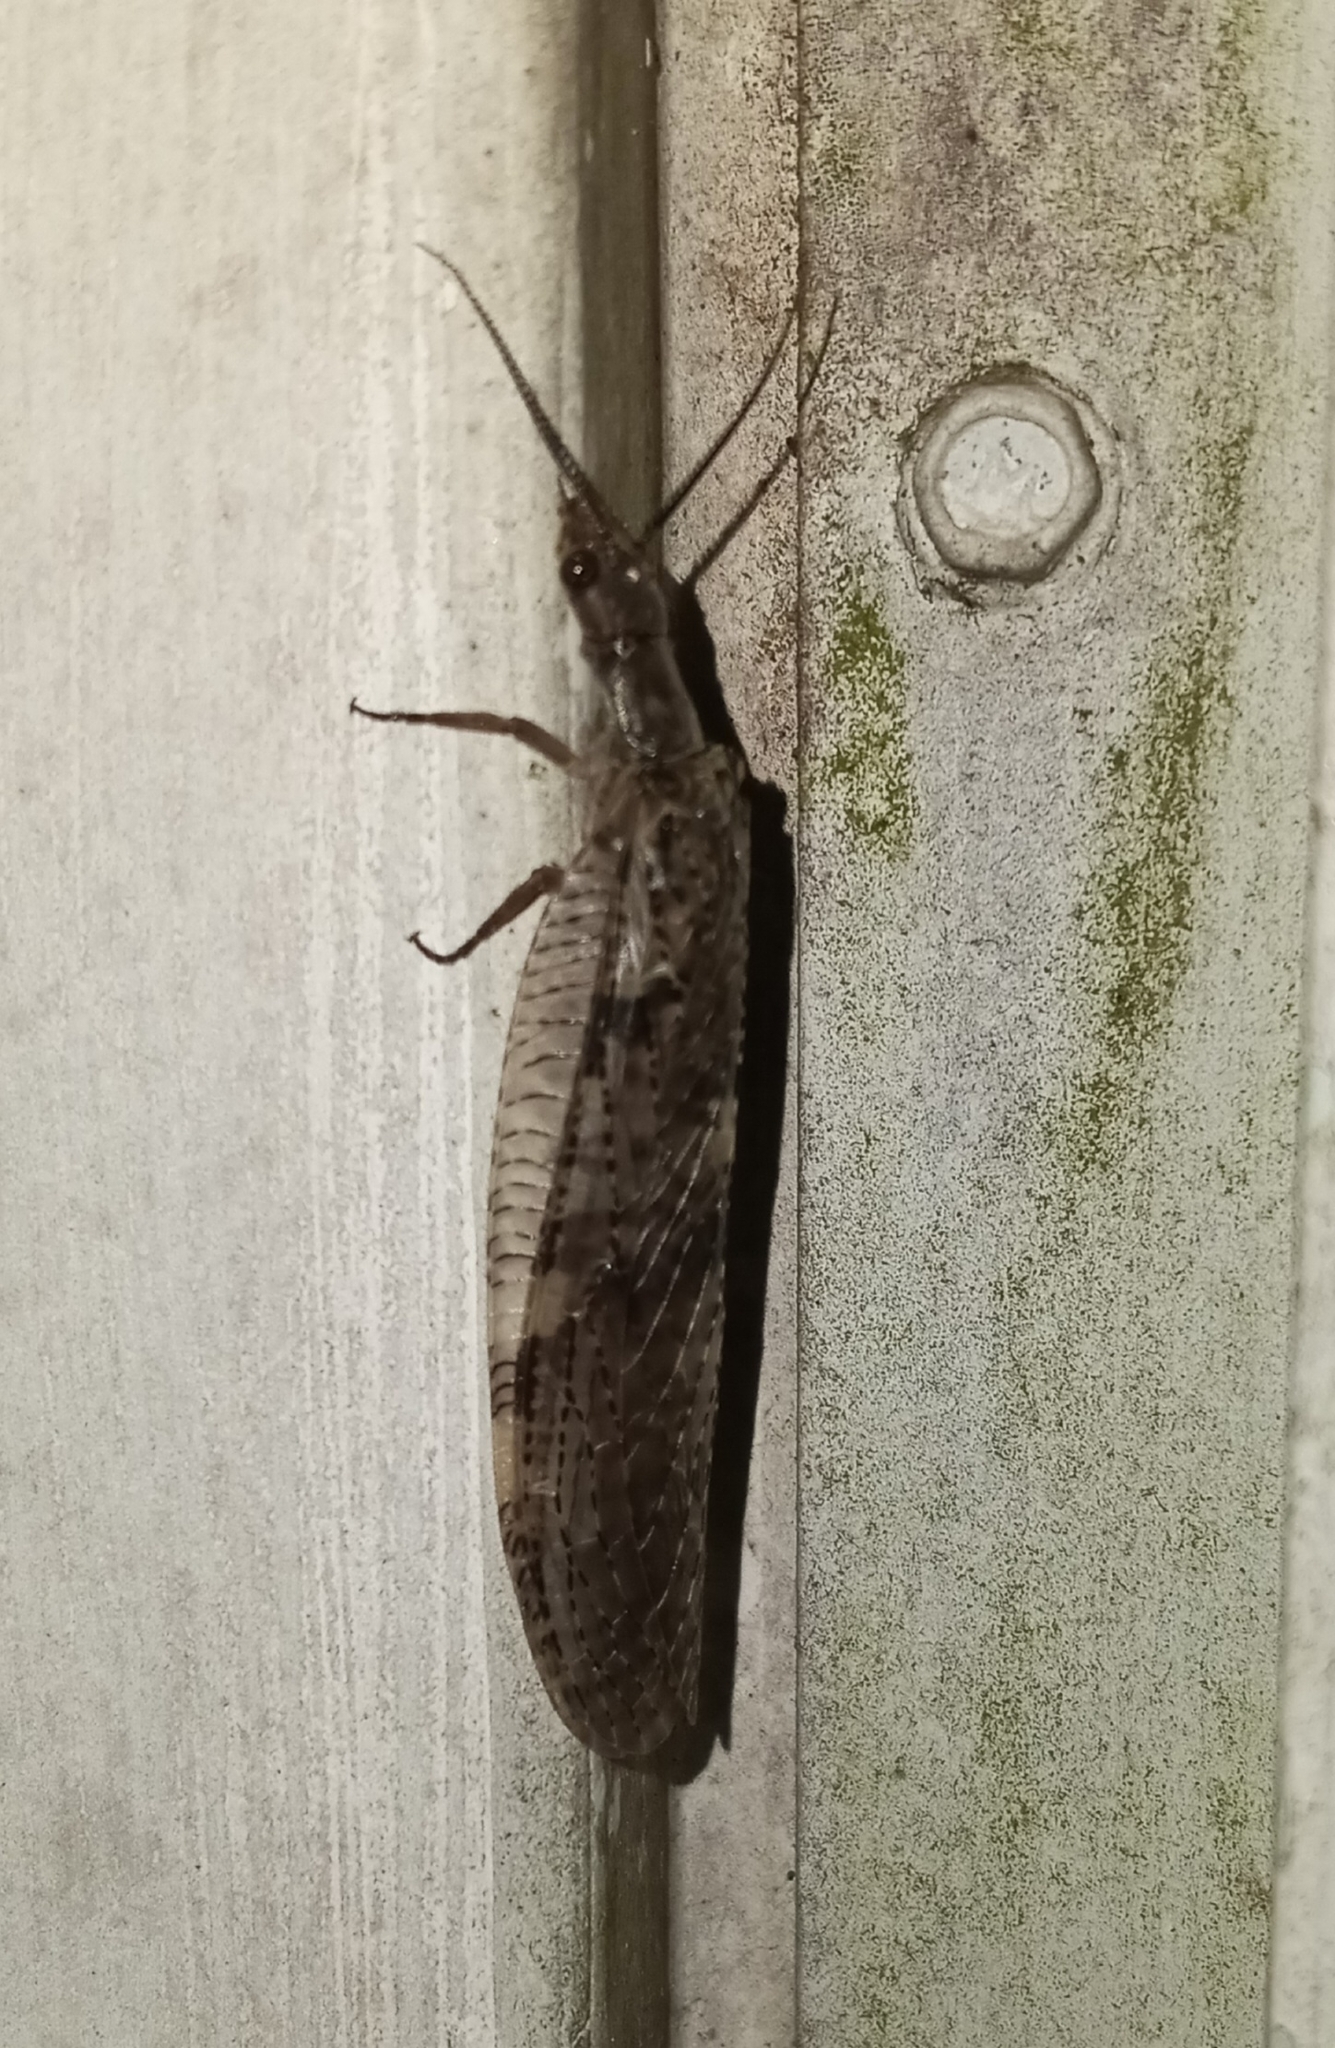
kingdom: Animalia
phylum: Arthropoda
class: Insecta
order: Megaloptera
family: Corydalidae
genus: Chauliodes
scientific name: Chauliodes pectinicornis
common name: Summer fishfly
